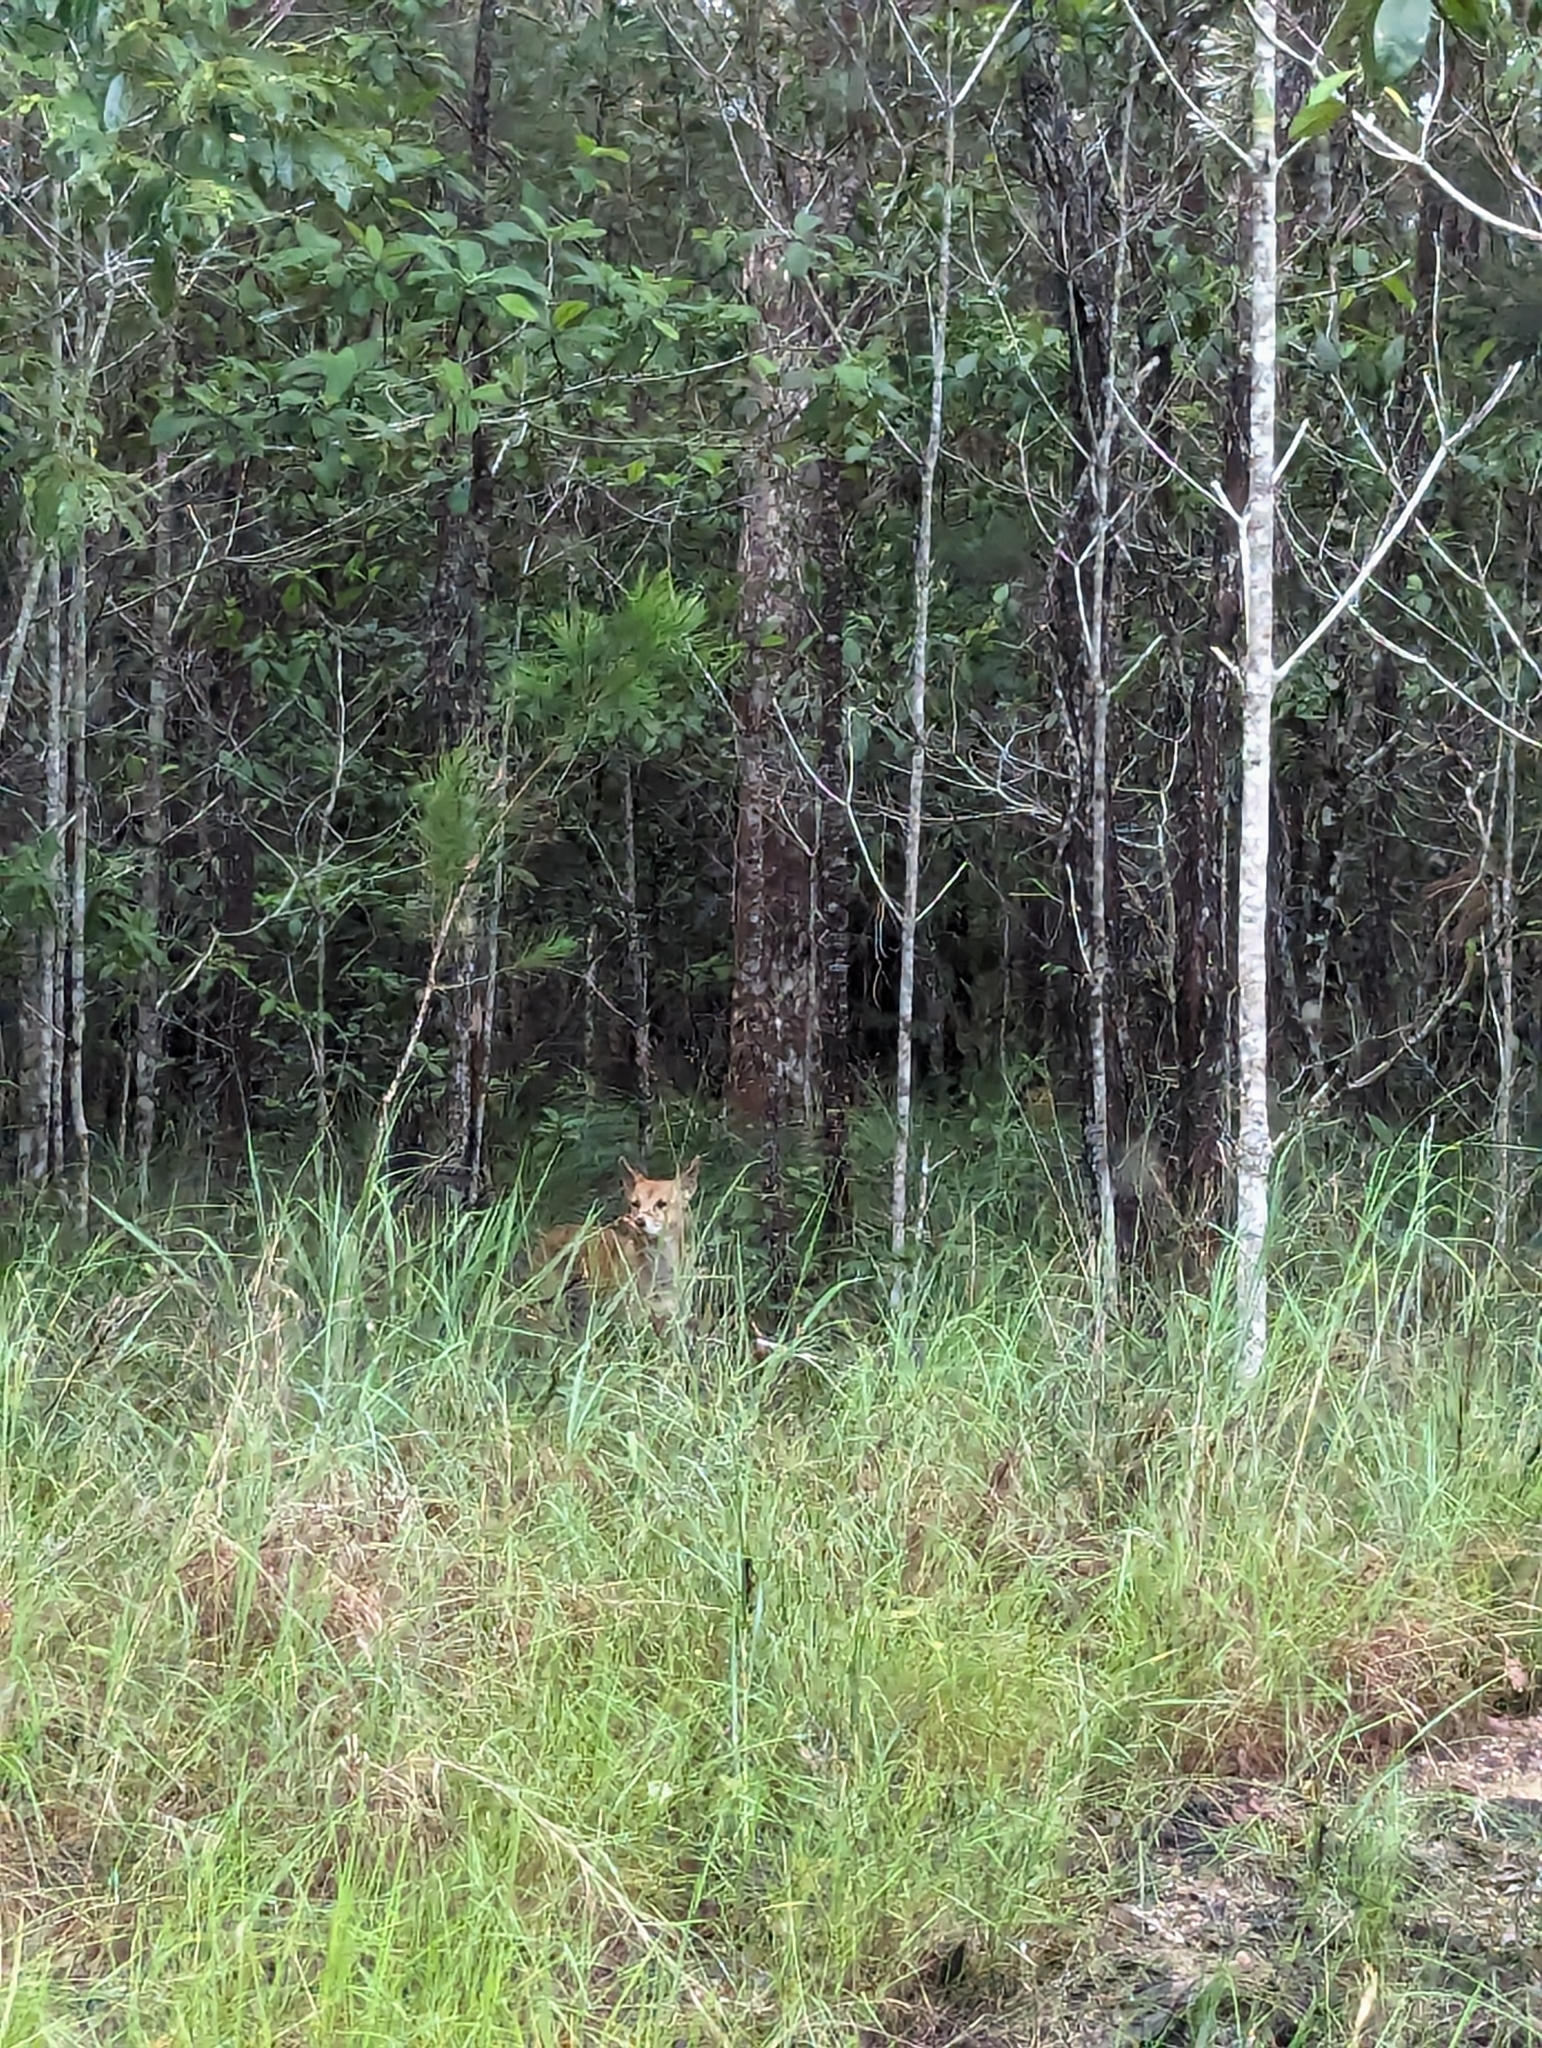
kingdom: Animalia
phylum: Chordata
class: Mammalia
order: Carnivora
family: Canidae
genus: Canis
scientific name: Canis lupus
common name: Gray wolf
